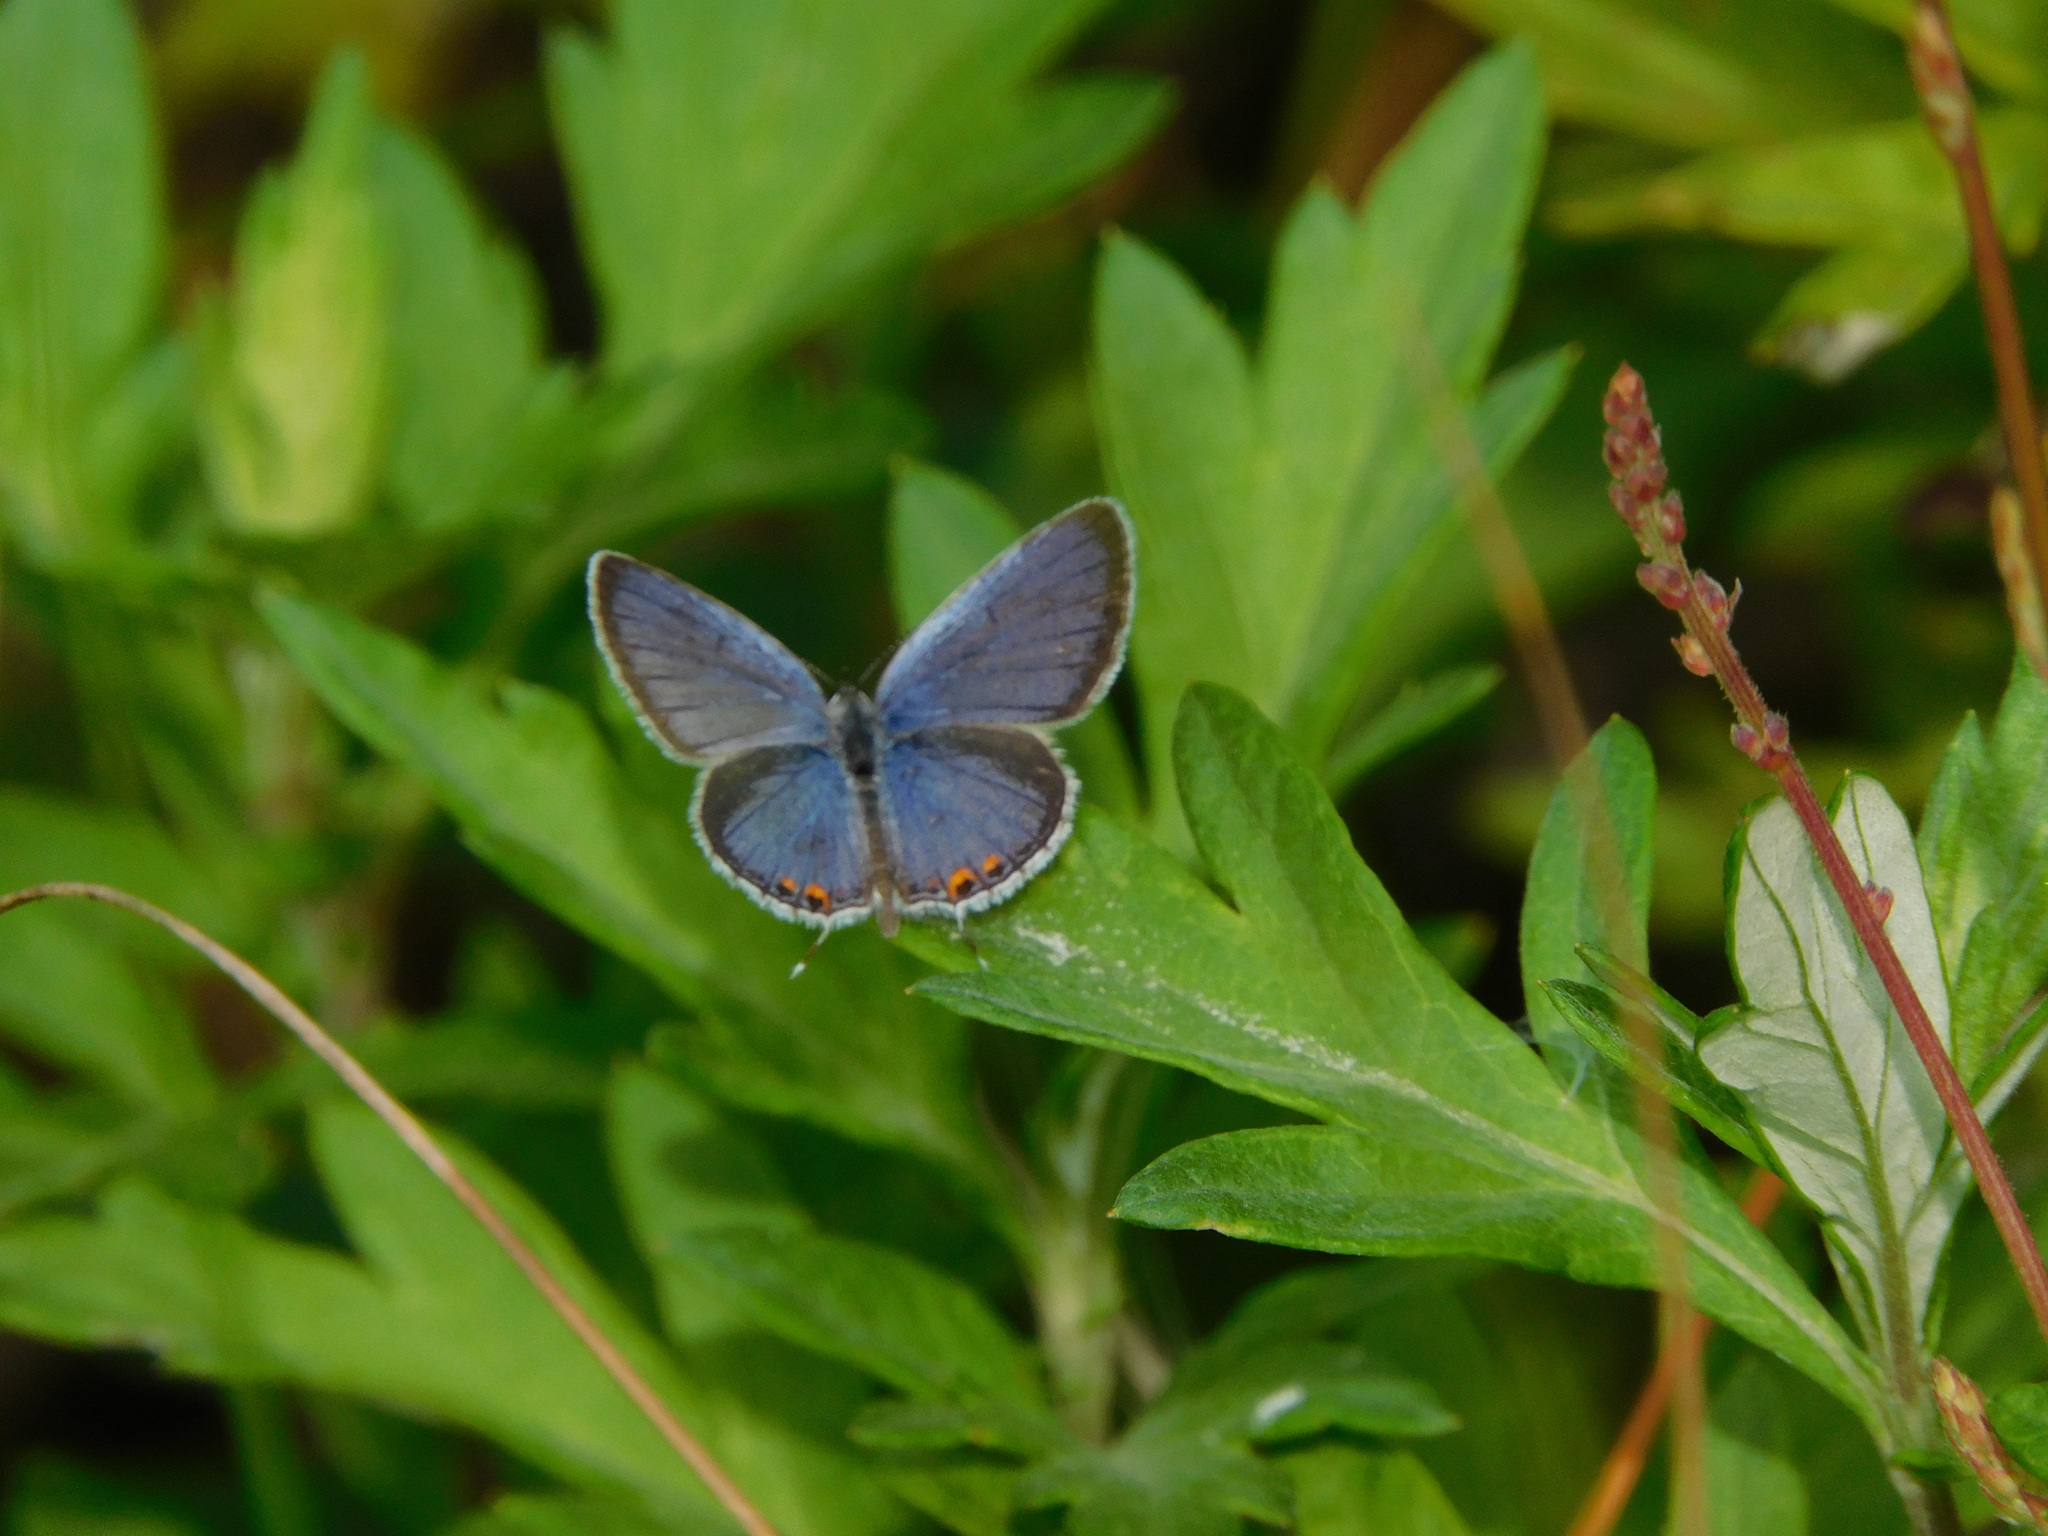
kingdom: Animalia
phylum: Arthropoda
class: Insecta
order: Lepidoptera
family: Lycaenidae
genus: Elkalyce
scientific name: Elkalyce comyntas
